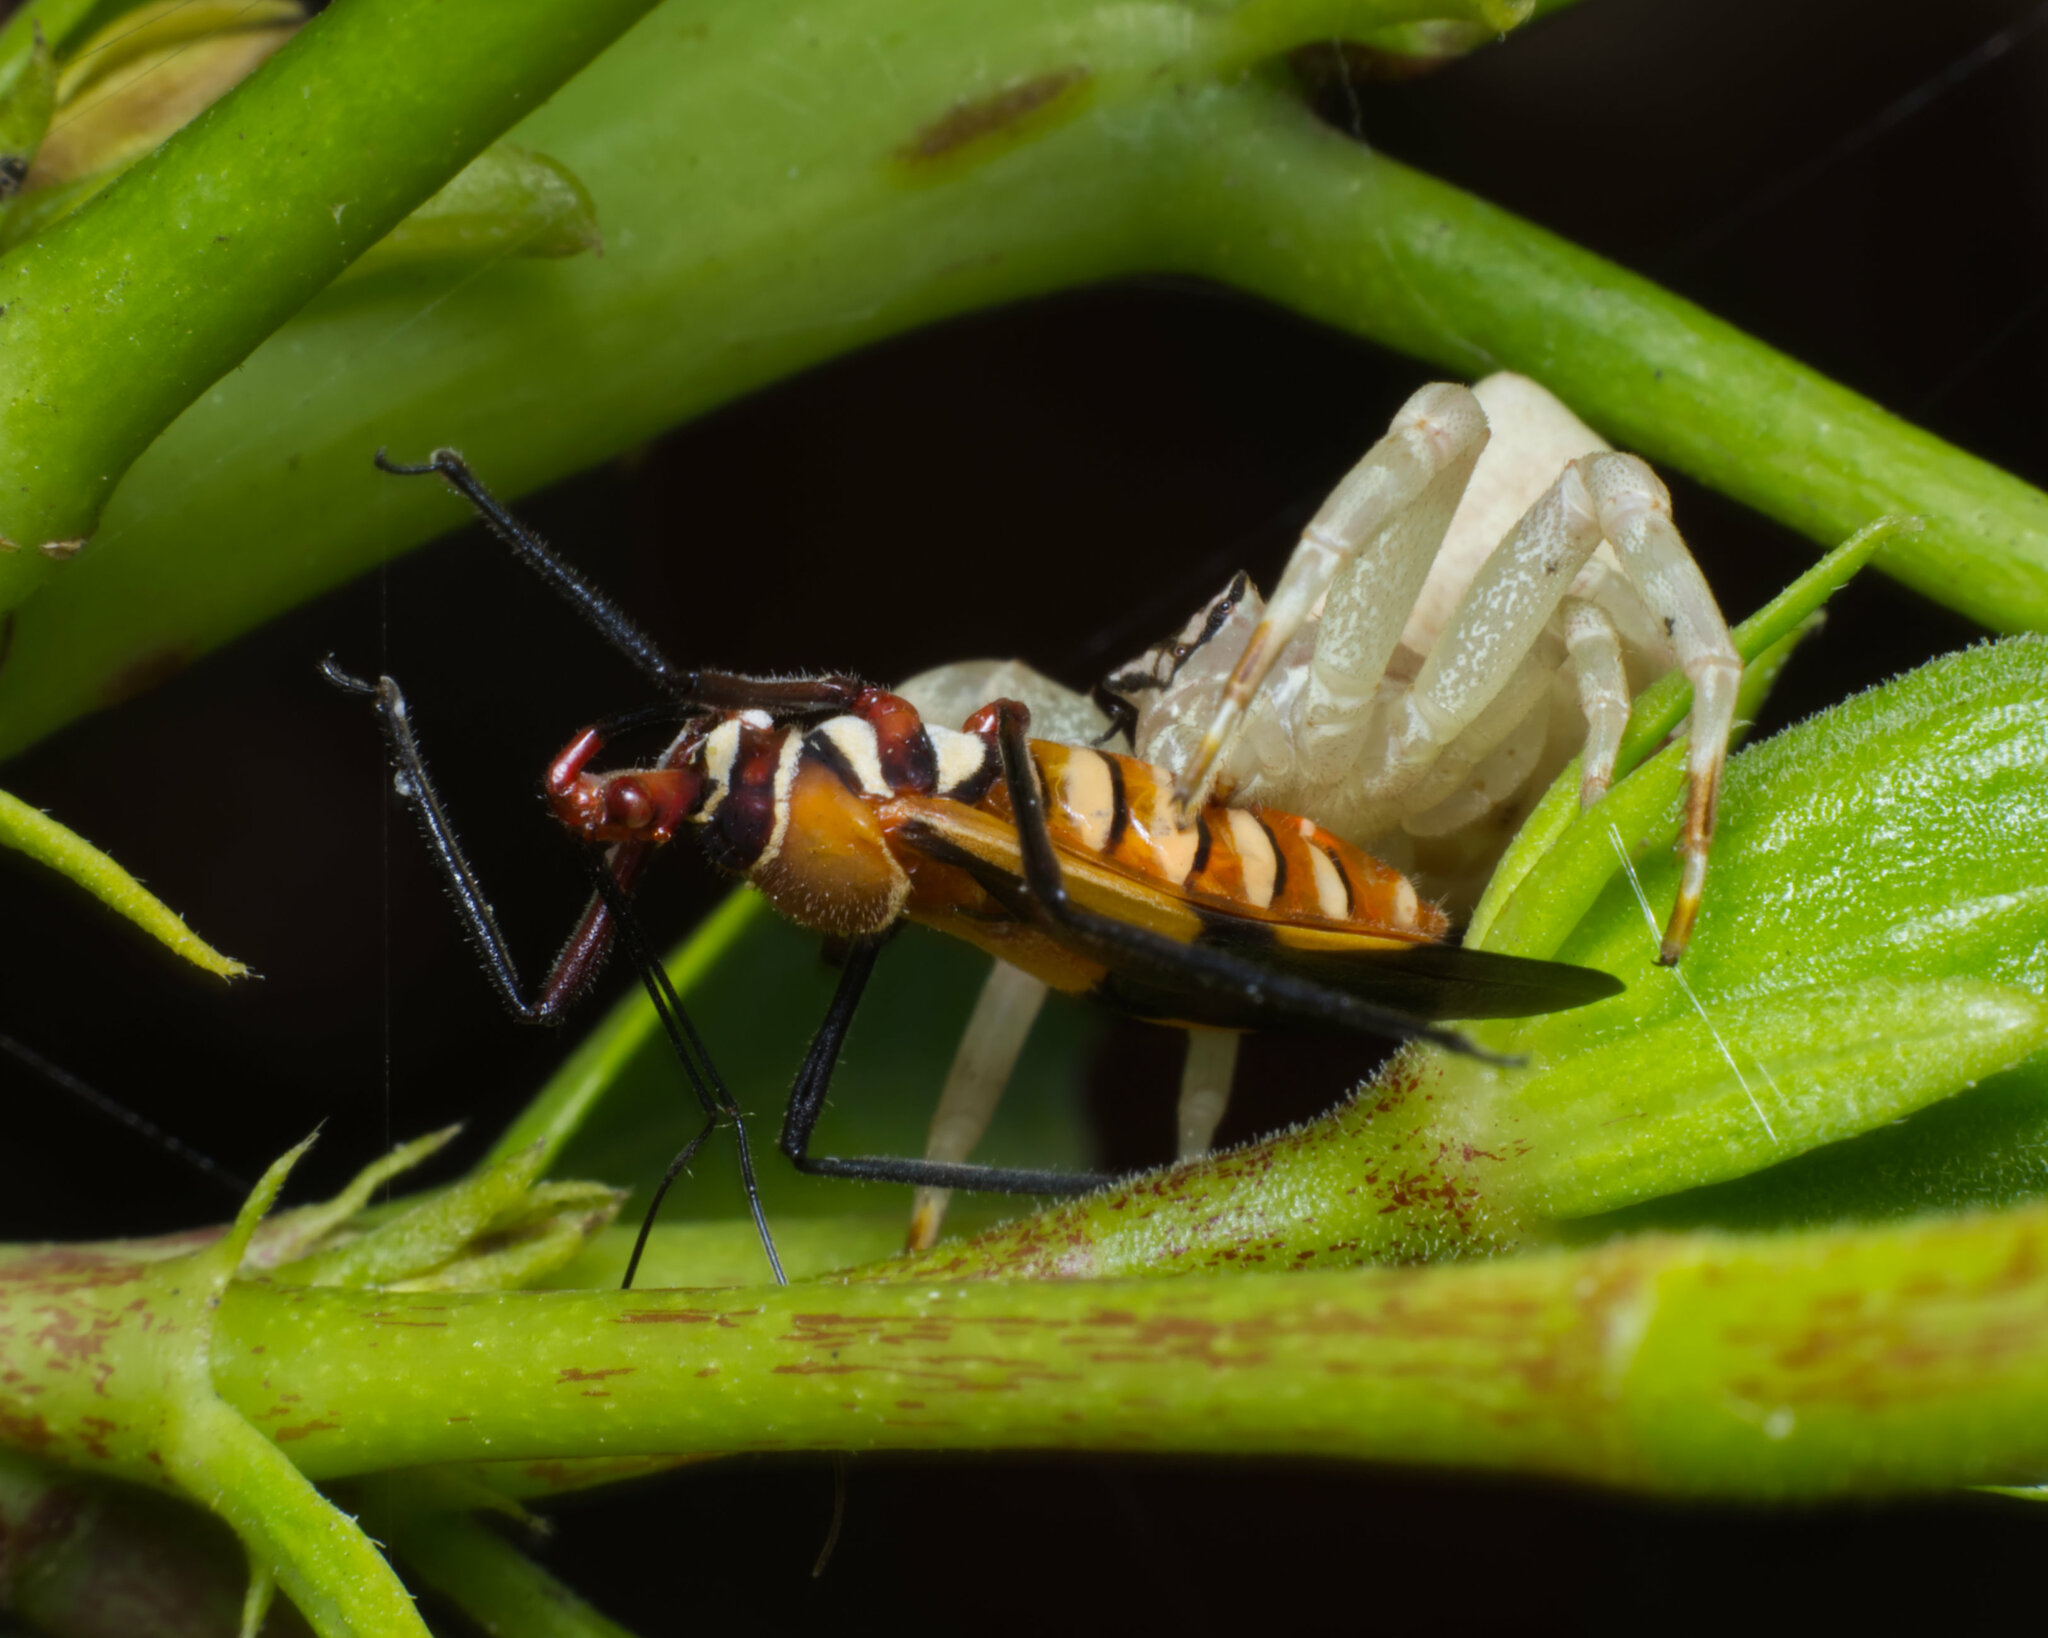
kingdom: Animalia
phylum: Arthropoda
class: Insecta
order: Hemiptera
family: Reduviidae
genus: Hediocoris
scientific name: Hediocoris tibialis
